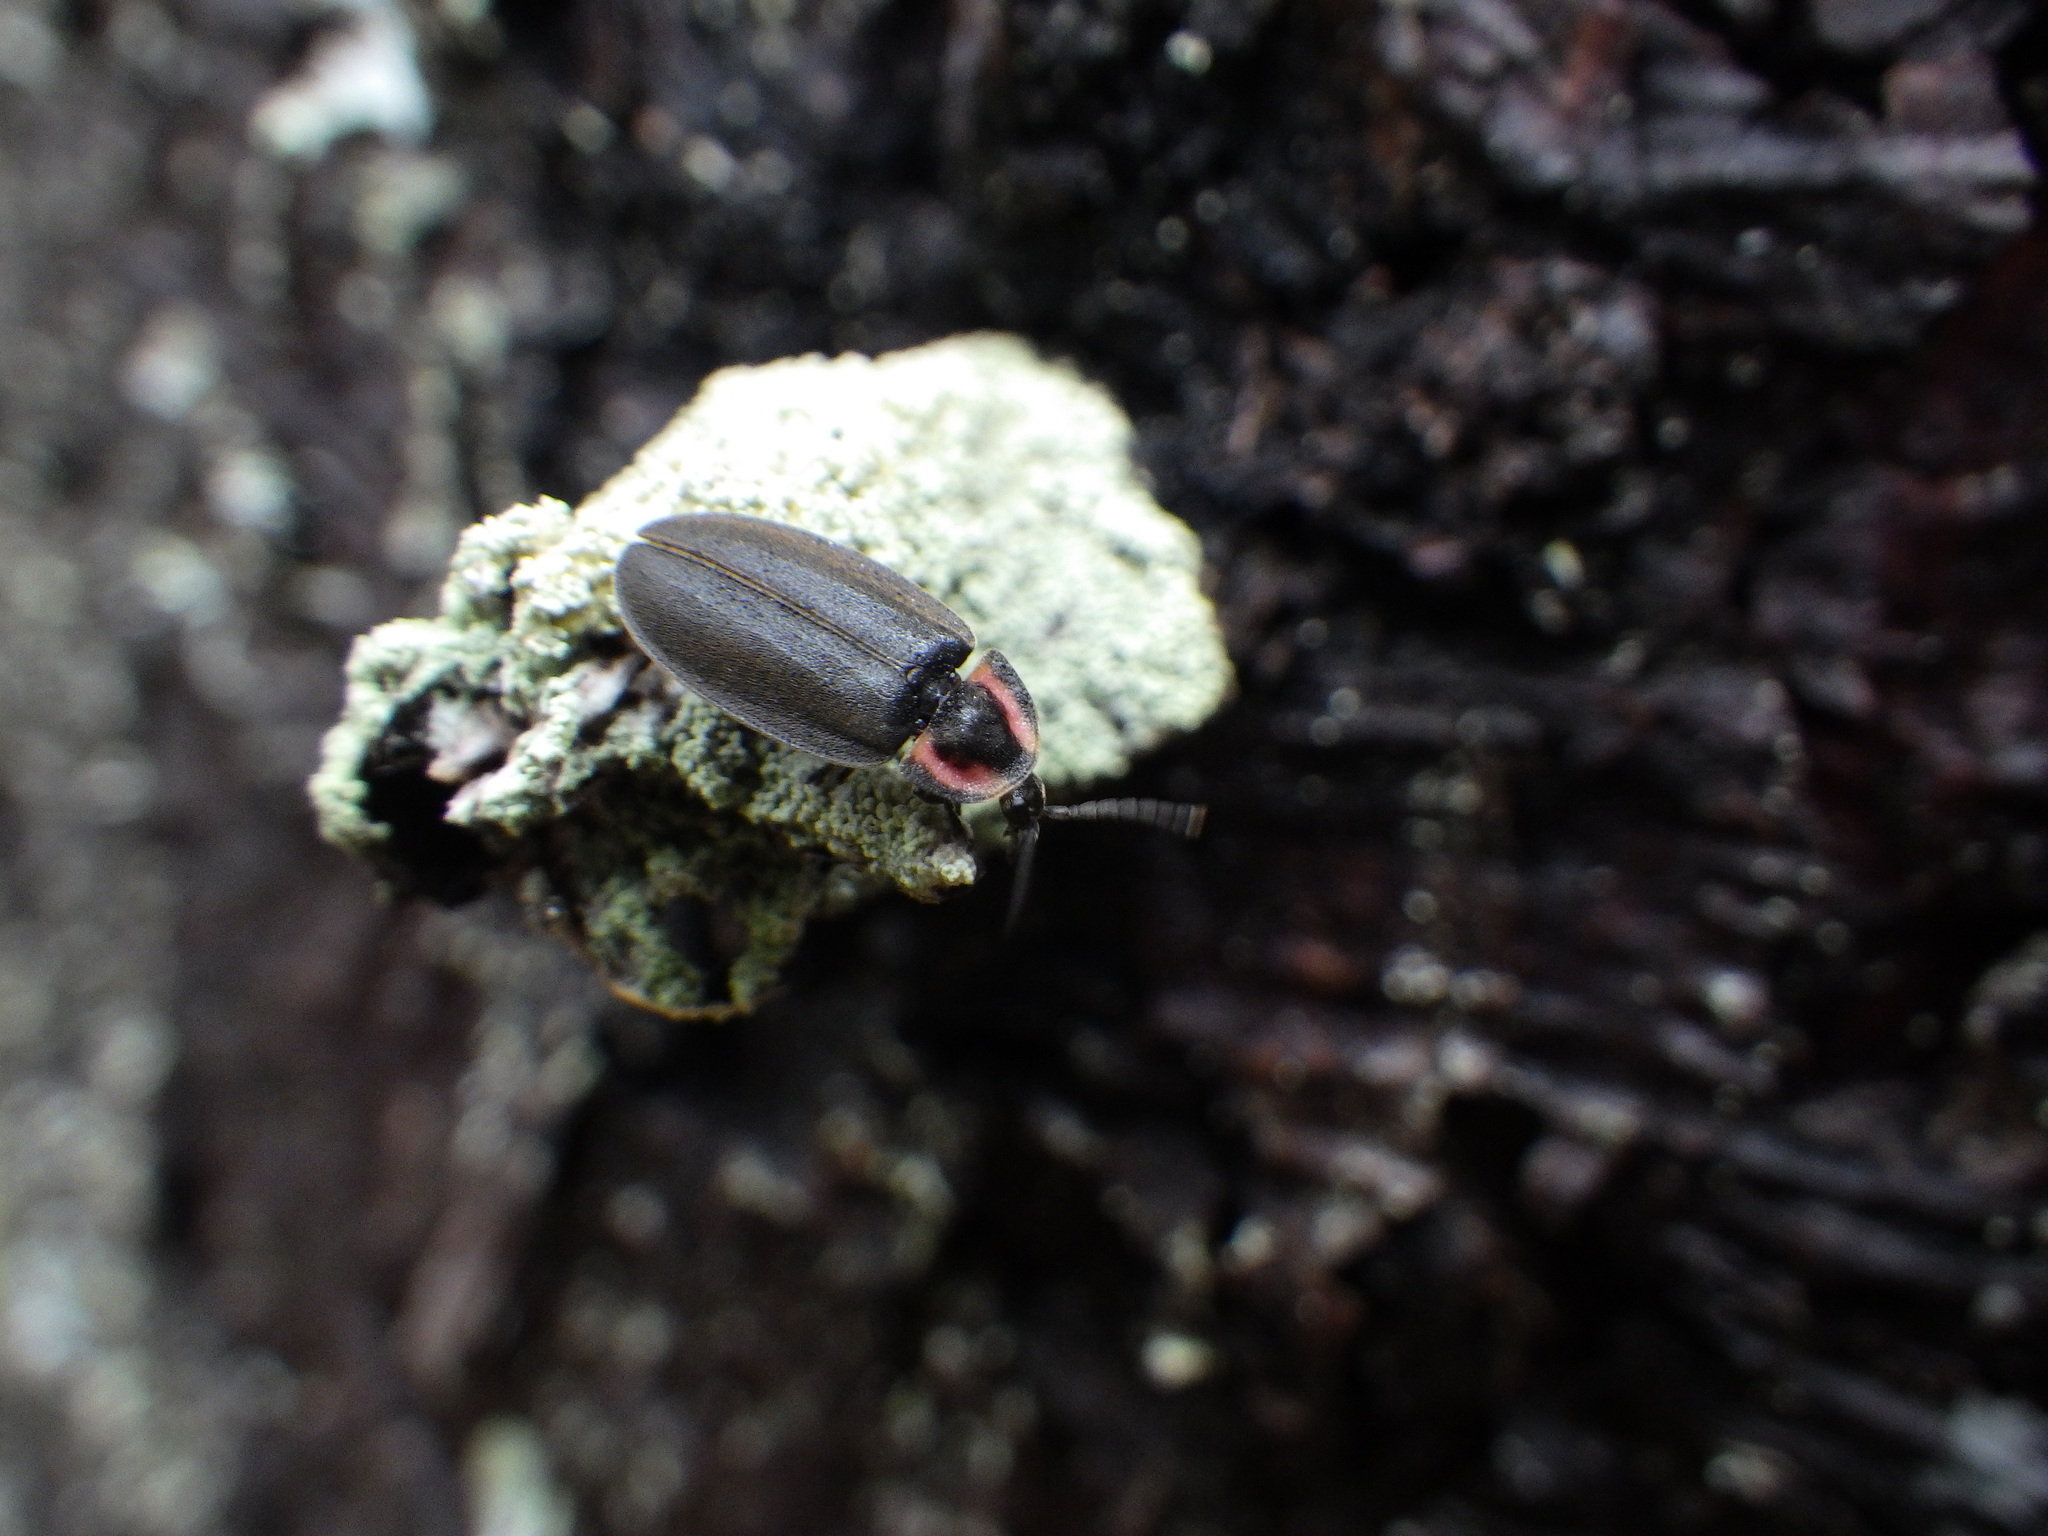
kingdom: Animalia
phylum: Arthropoda
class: Insecta
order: Coleoptera
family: Lampyridae
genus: Photinus
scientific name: Photinus corrusca
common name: Winter firefly
